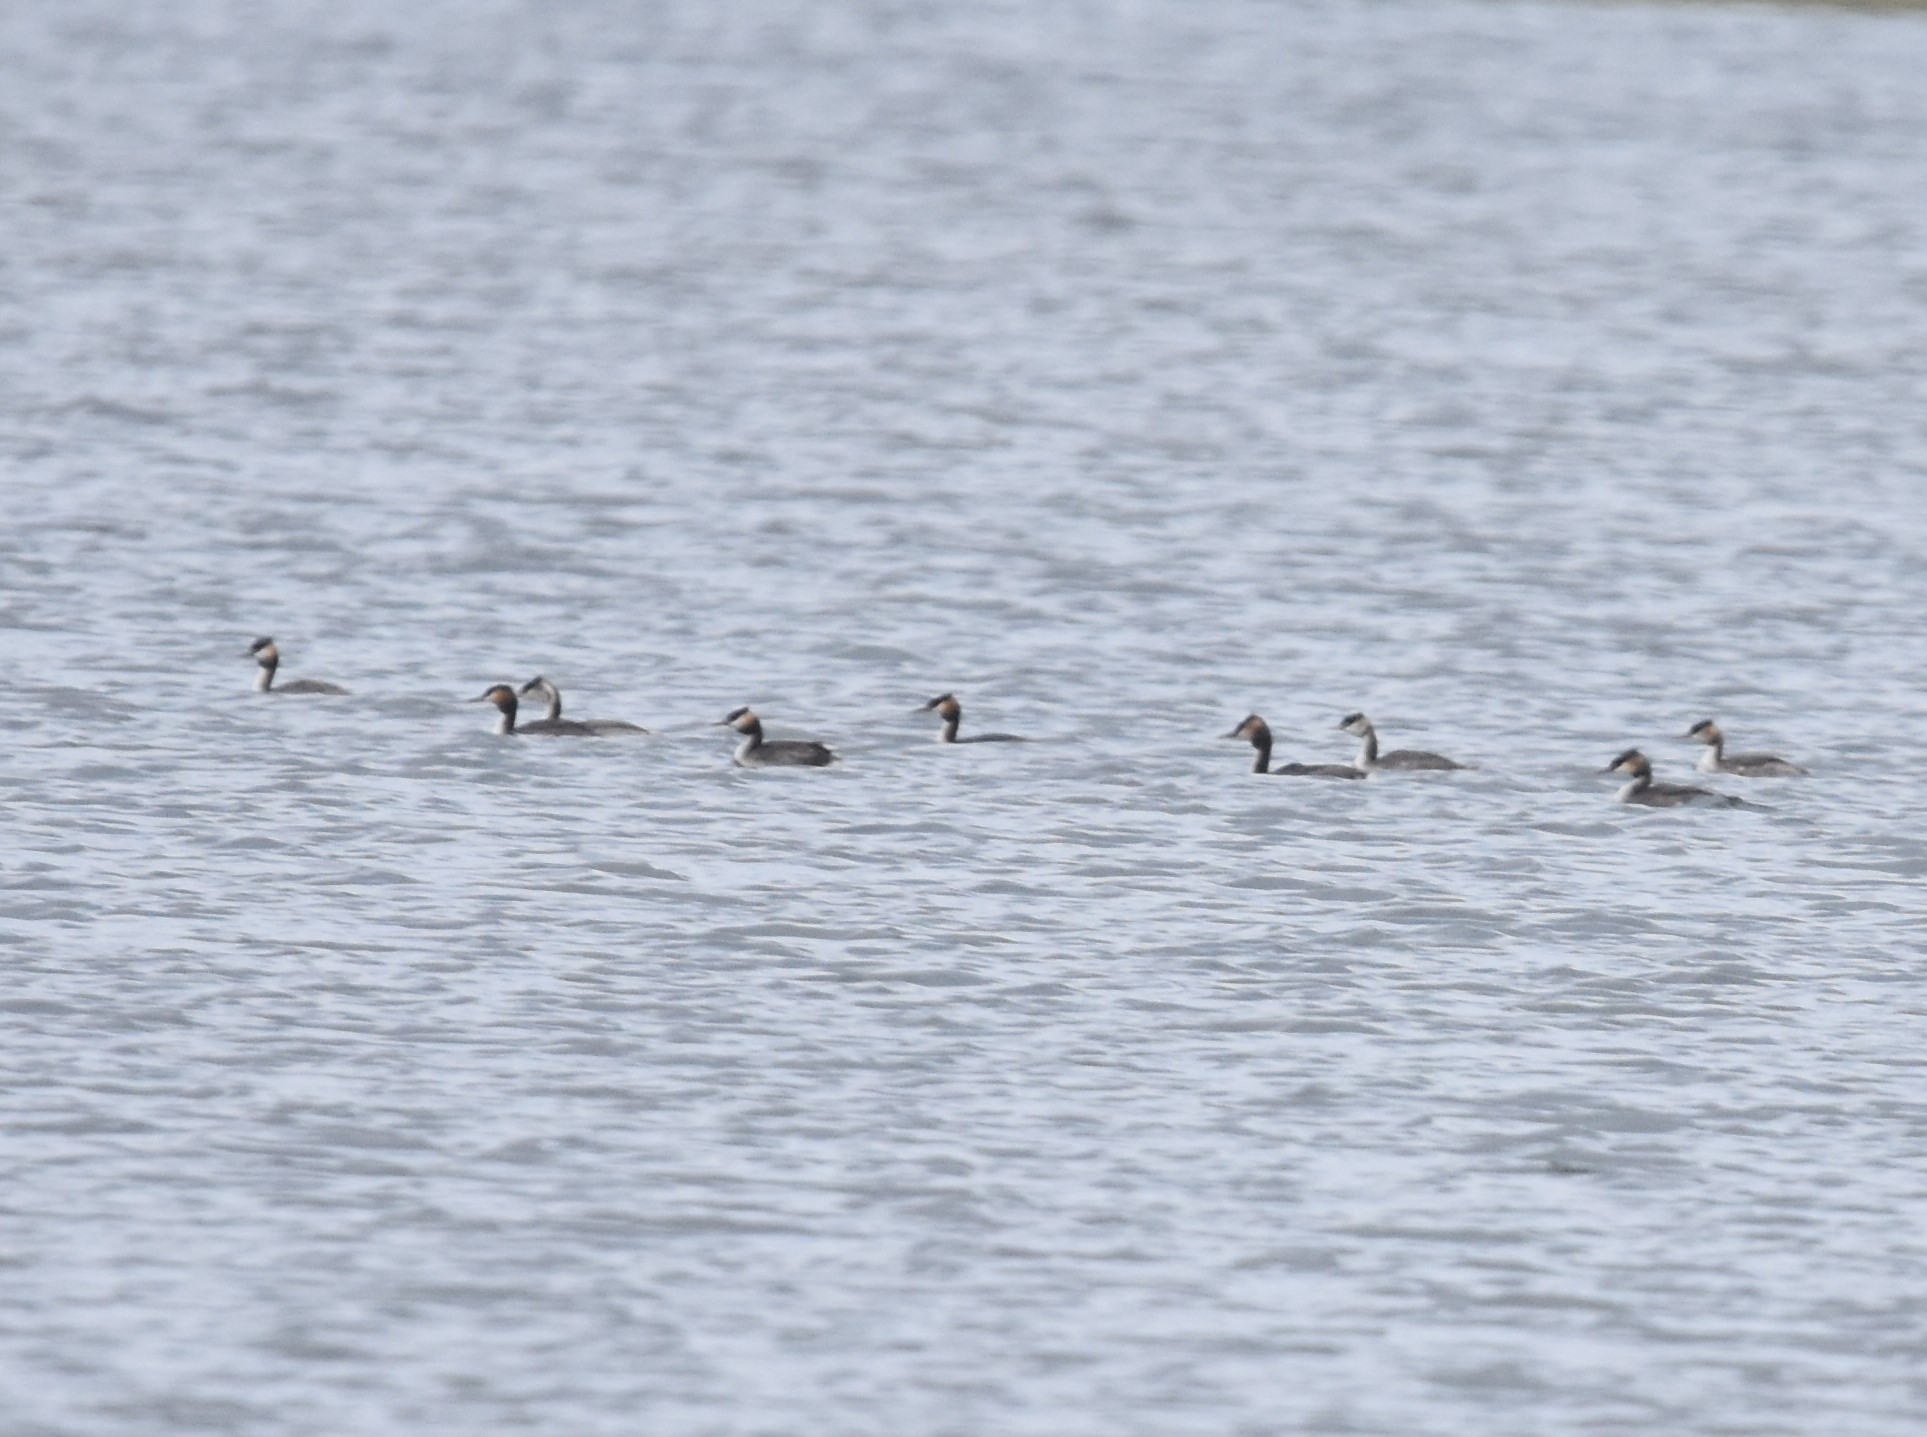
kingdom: Animalia
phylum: Chordata
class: Aves
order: Podicipediformes
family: Podicipedidae
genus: Podiceps
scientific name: Podiceps cristatus
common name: Great crested grebe
